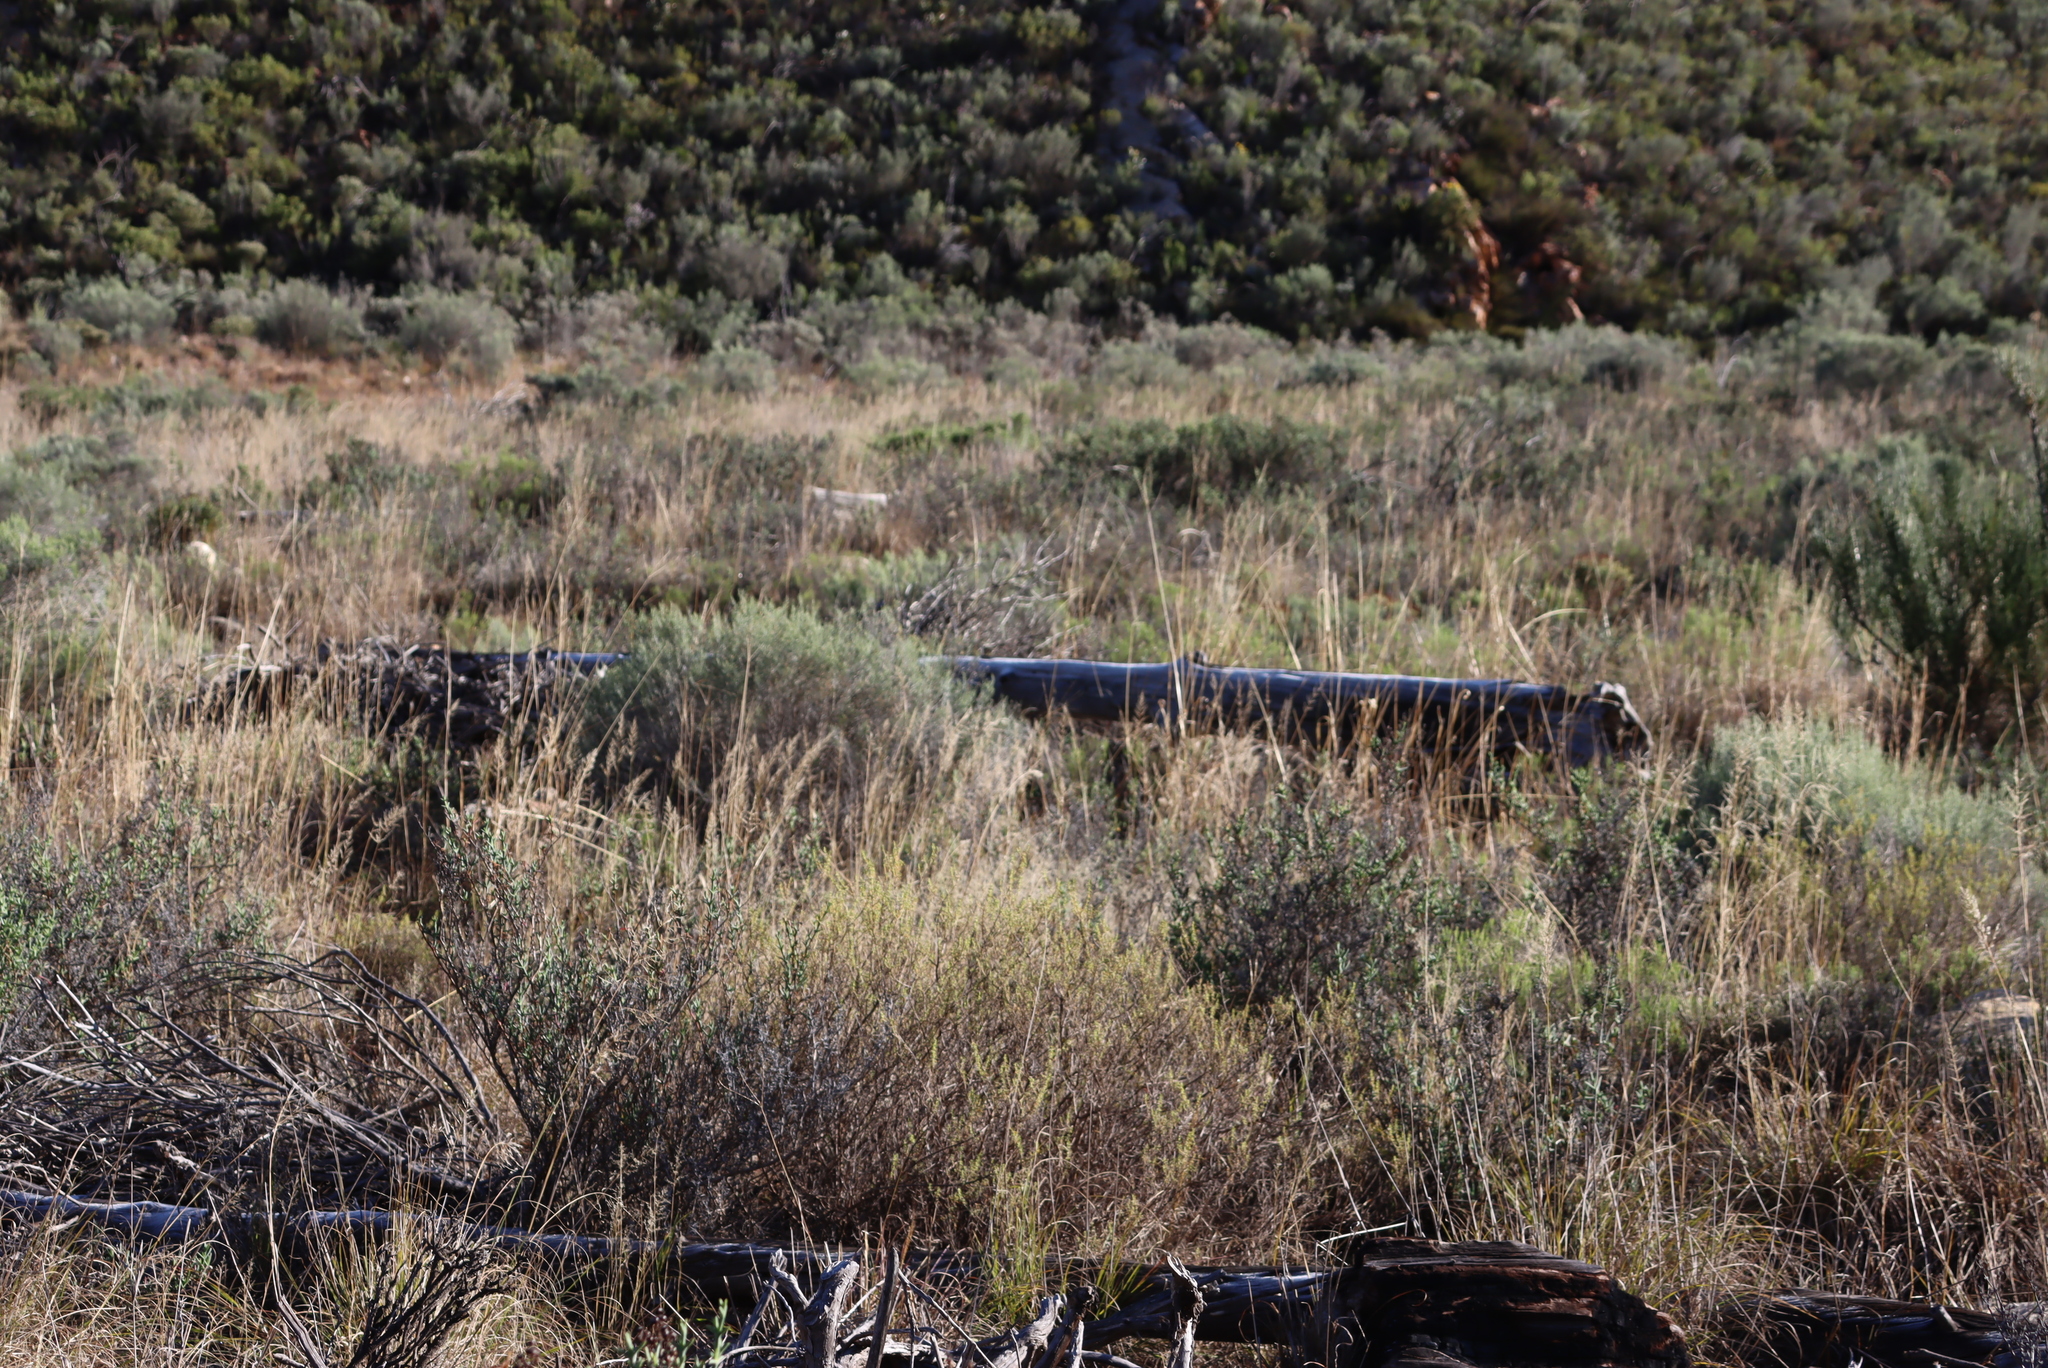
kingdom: Plantae
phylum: Tracheophyta
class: Pinopsida
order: Pinales
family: Cupressaceae
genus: Widdringtonia
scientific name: Widdringtonia schwarzii
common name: Baviaans cedar
